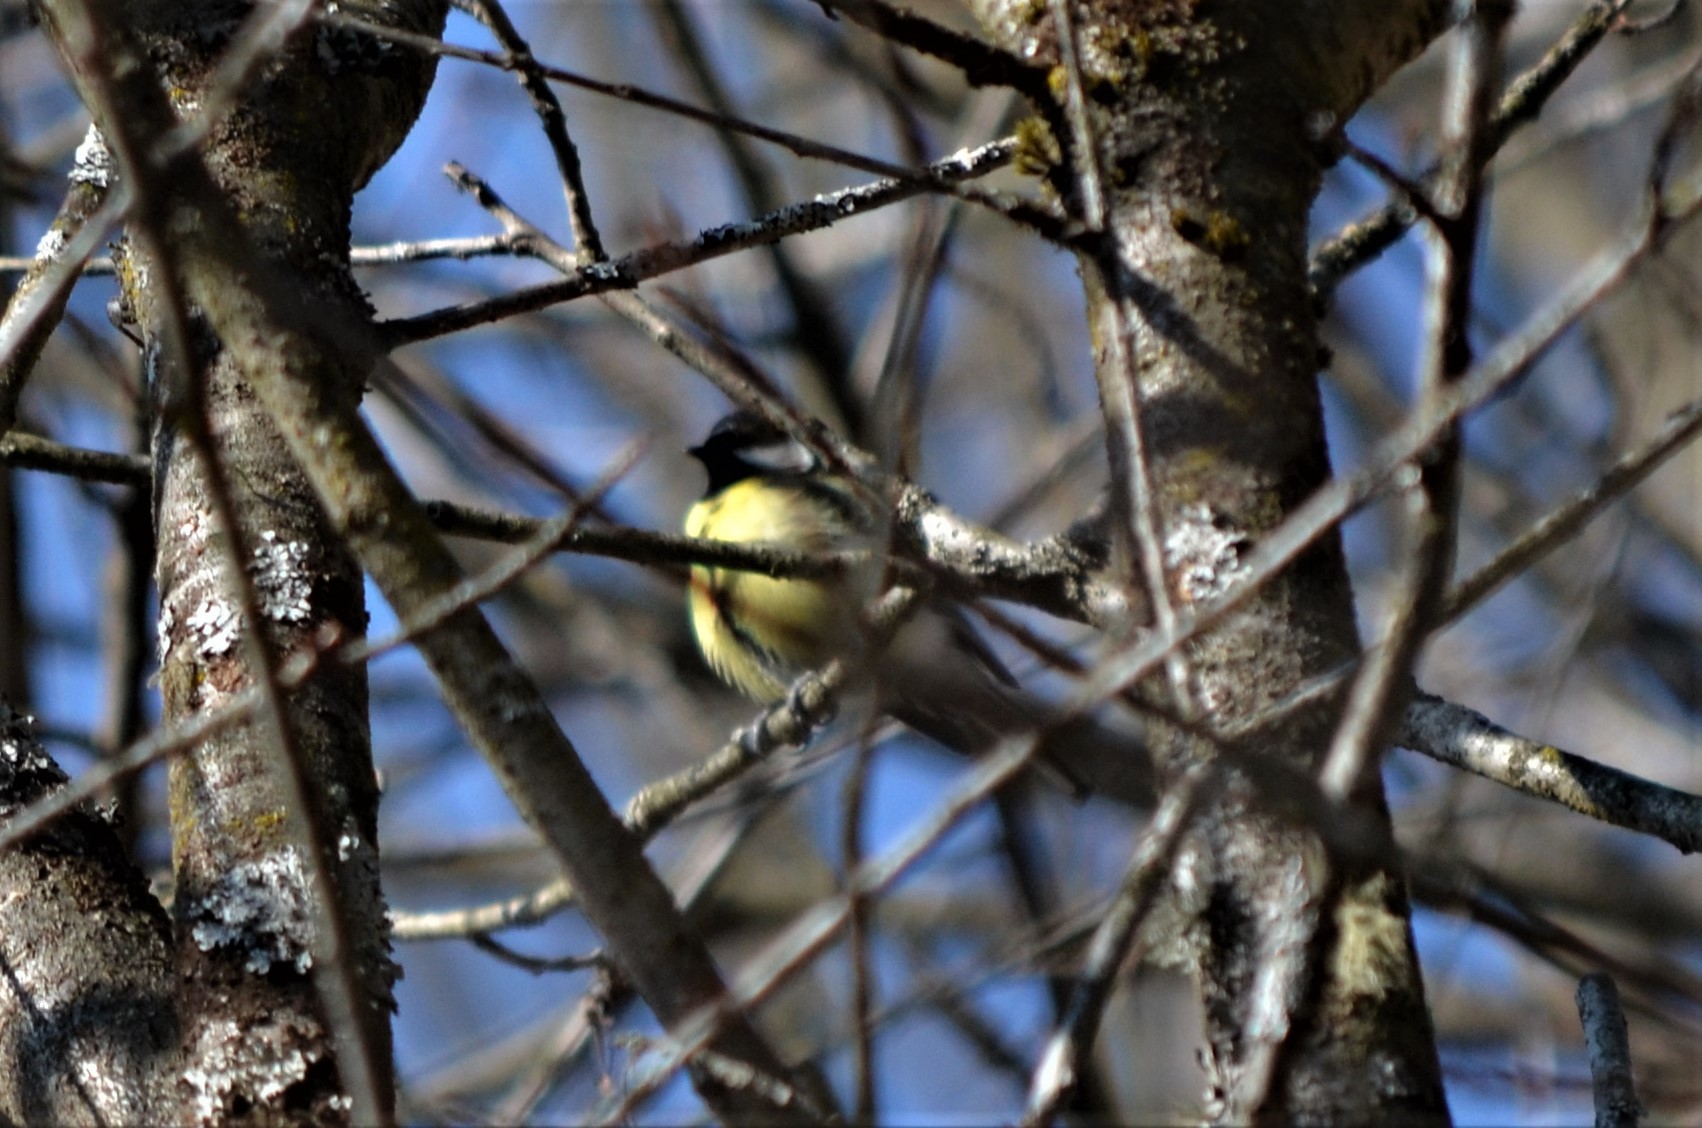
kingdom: Animalia
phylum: Chordata
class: Aves
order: Passeriformes
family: Paridae
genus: Parus
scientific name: Parus major
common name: Great tit
